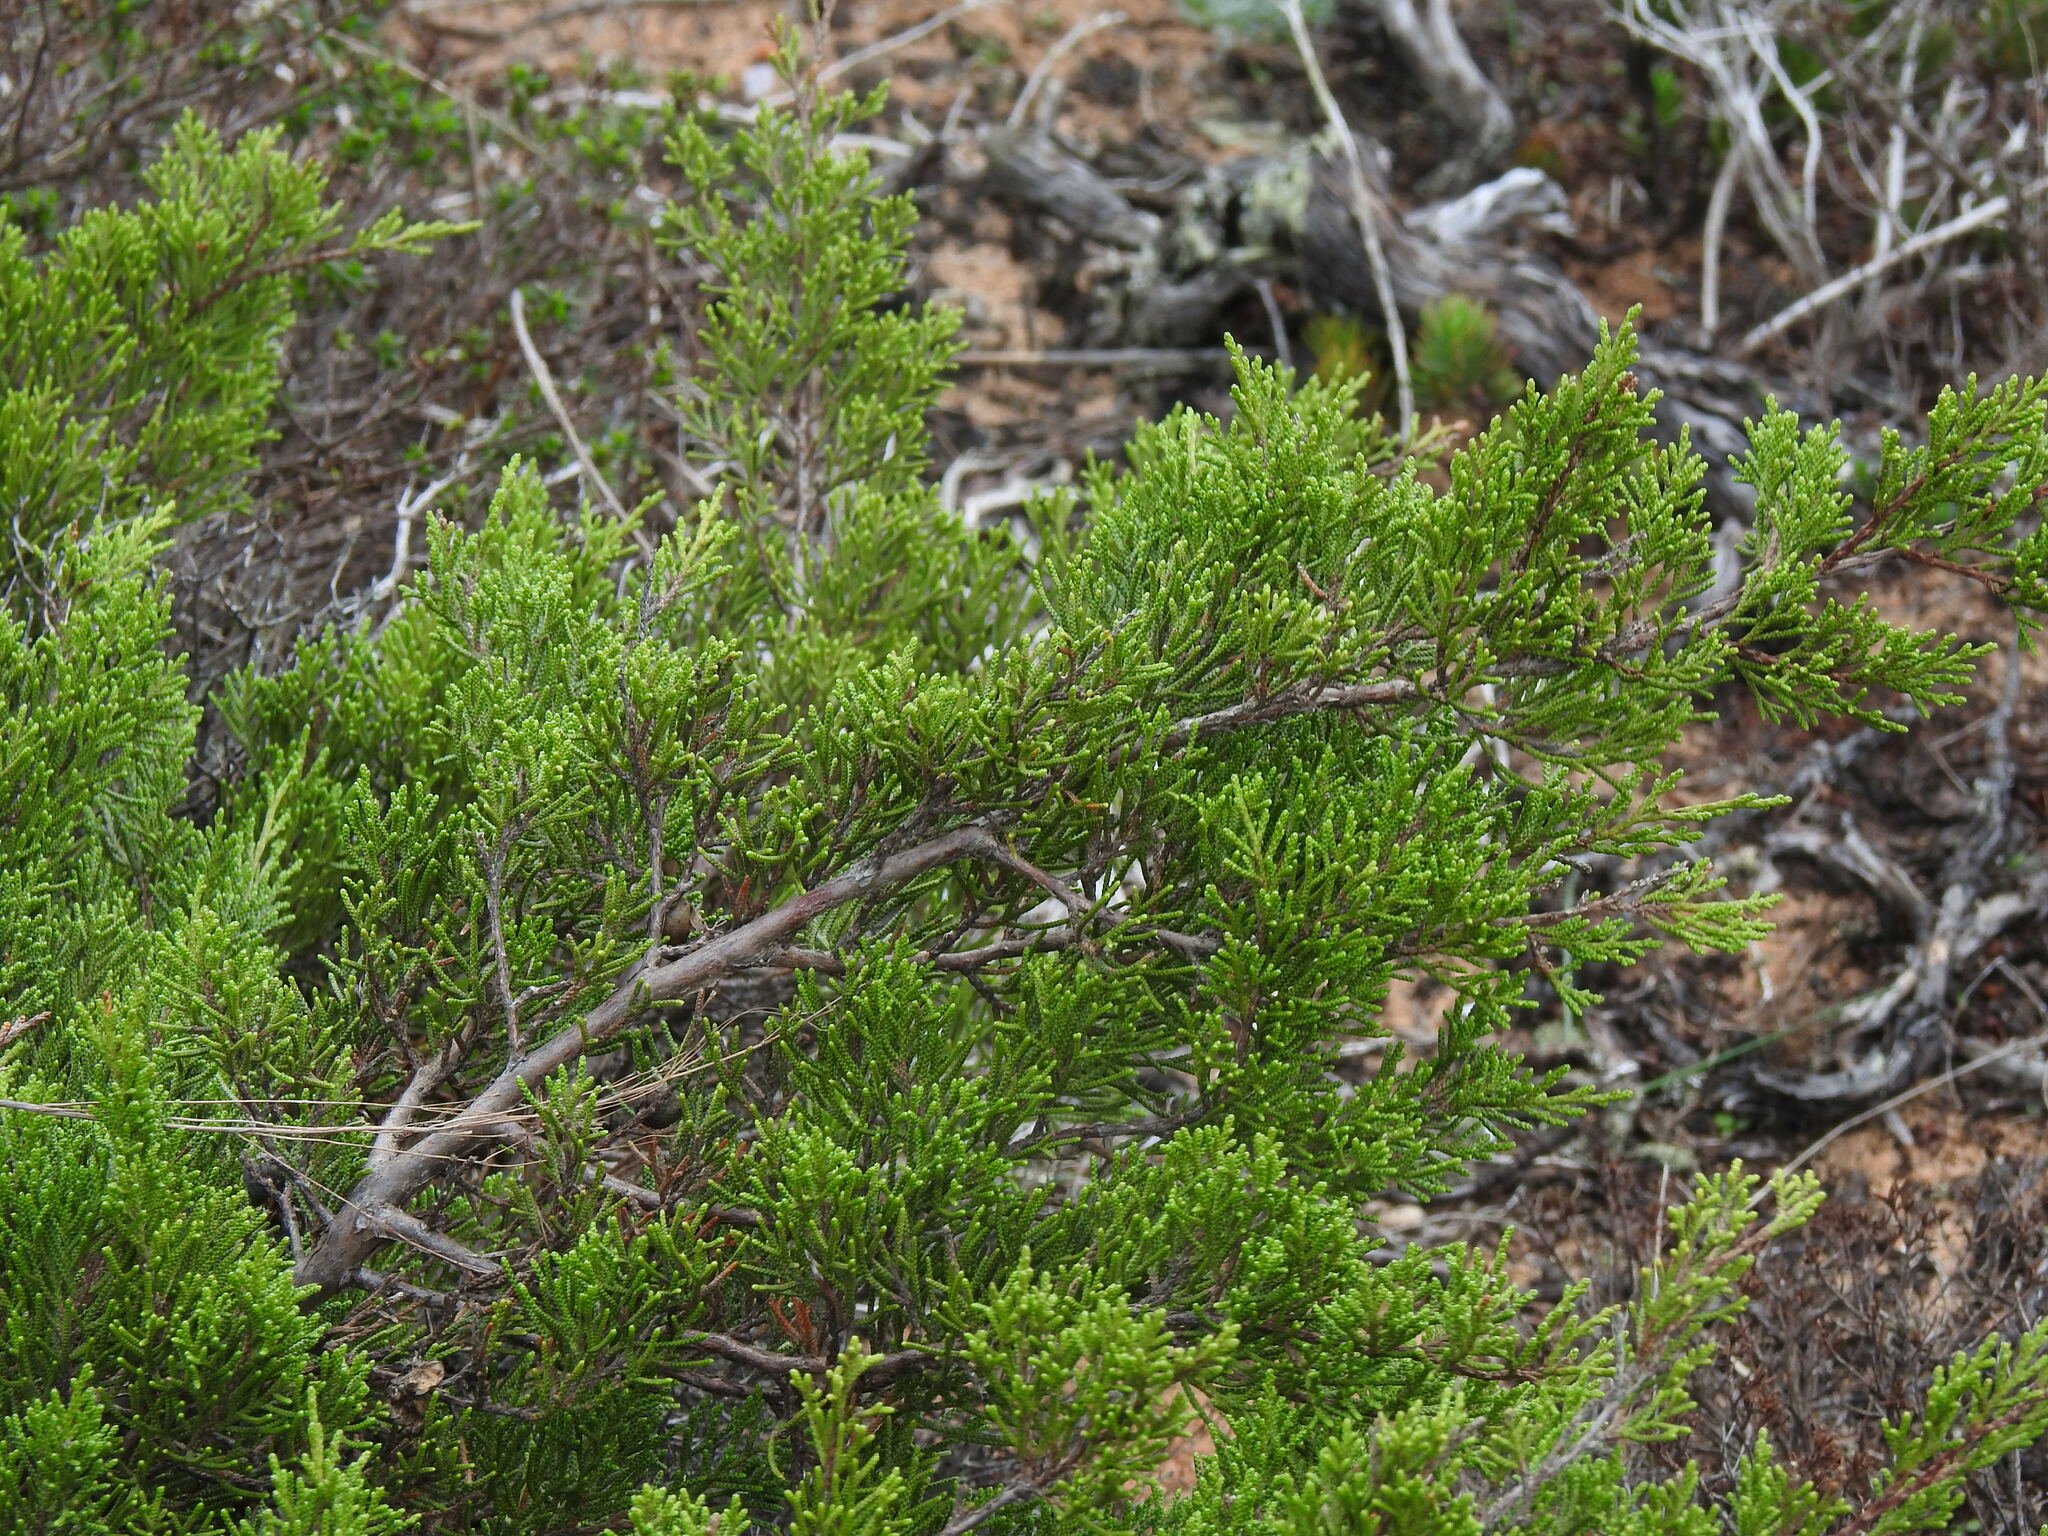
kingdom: Plantae
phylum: Tracheophyta
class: Pinopsida
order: Pinales
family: Cupressaceae
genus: Juniperus
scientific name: Juniperus phoenicea
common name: Phoenician juniper
